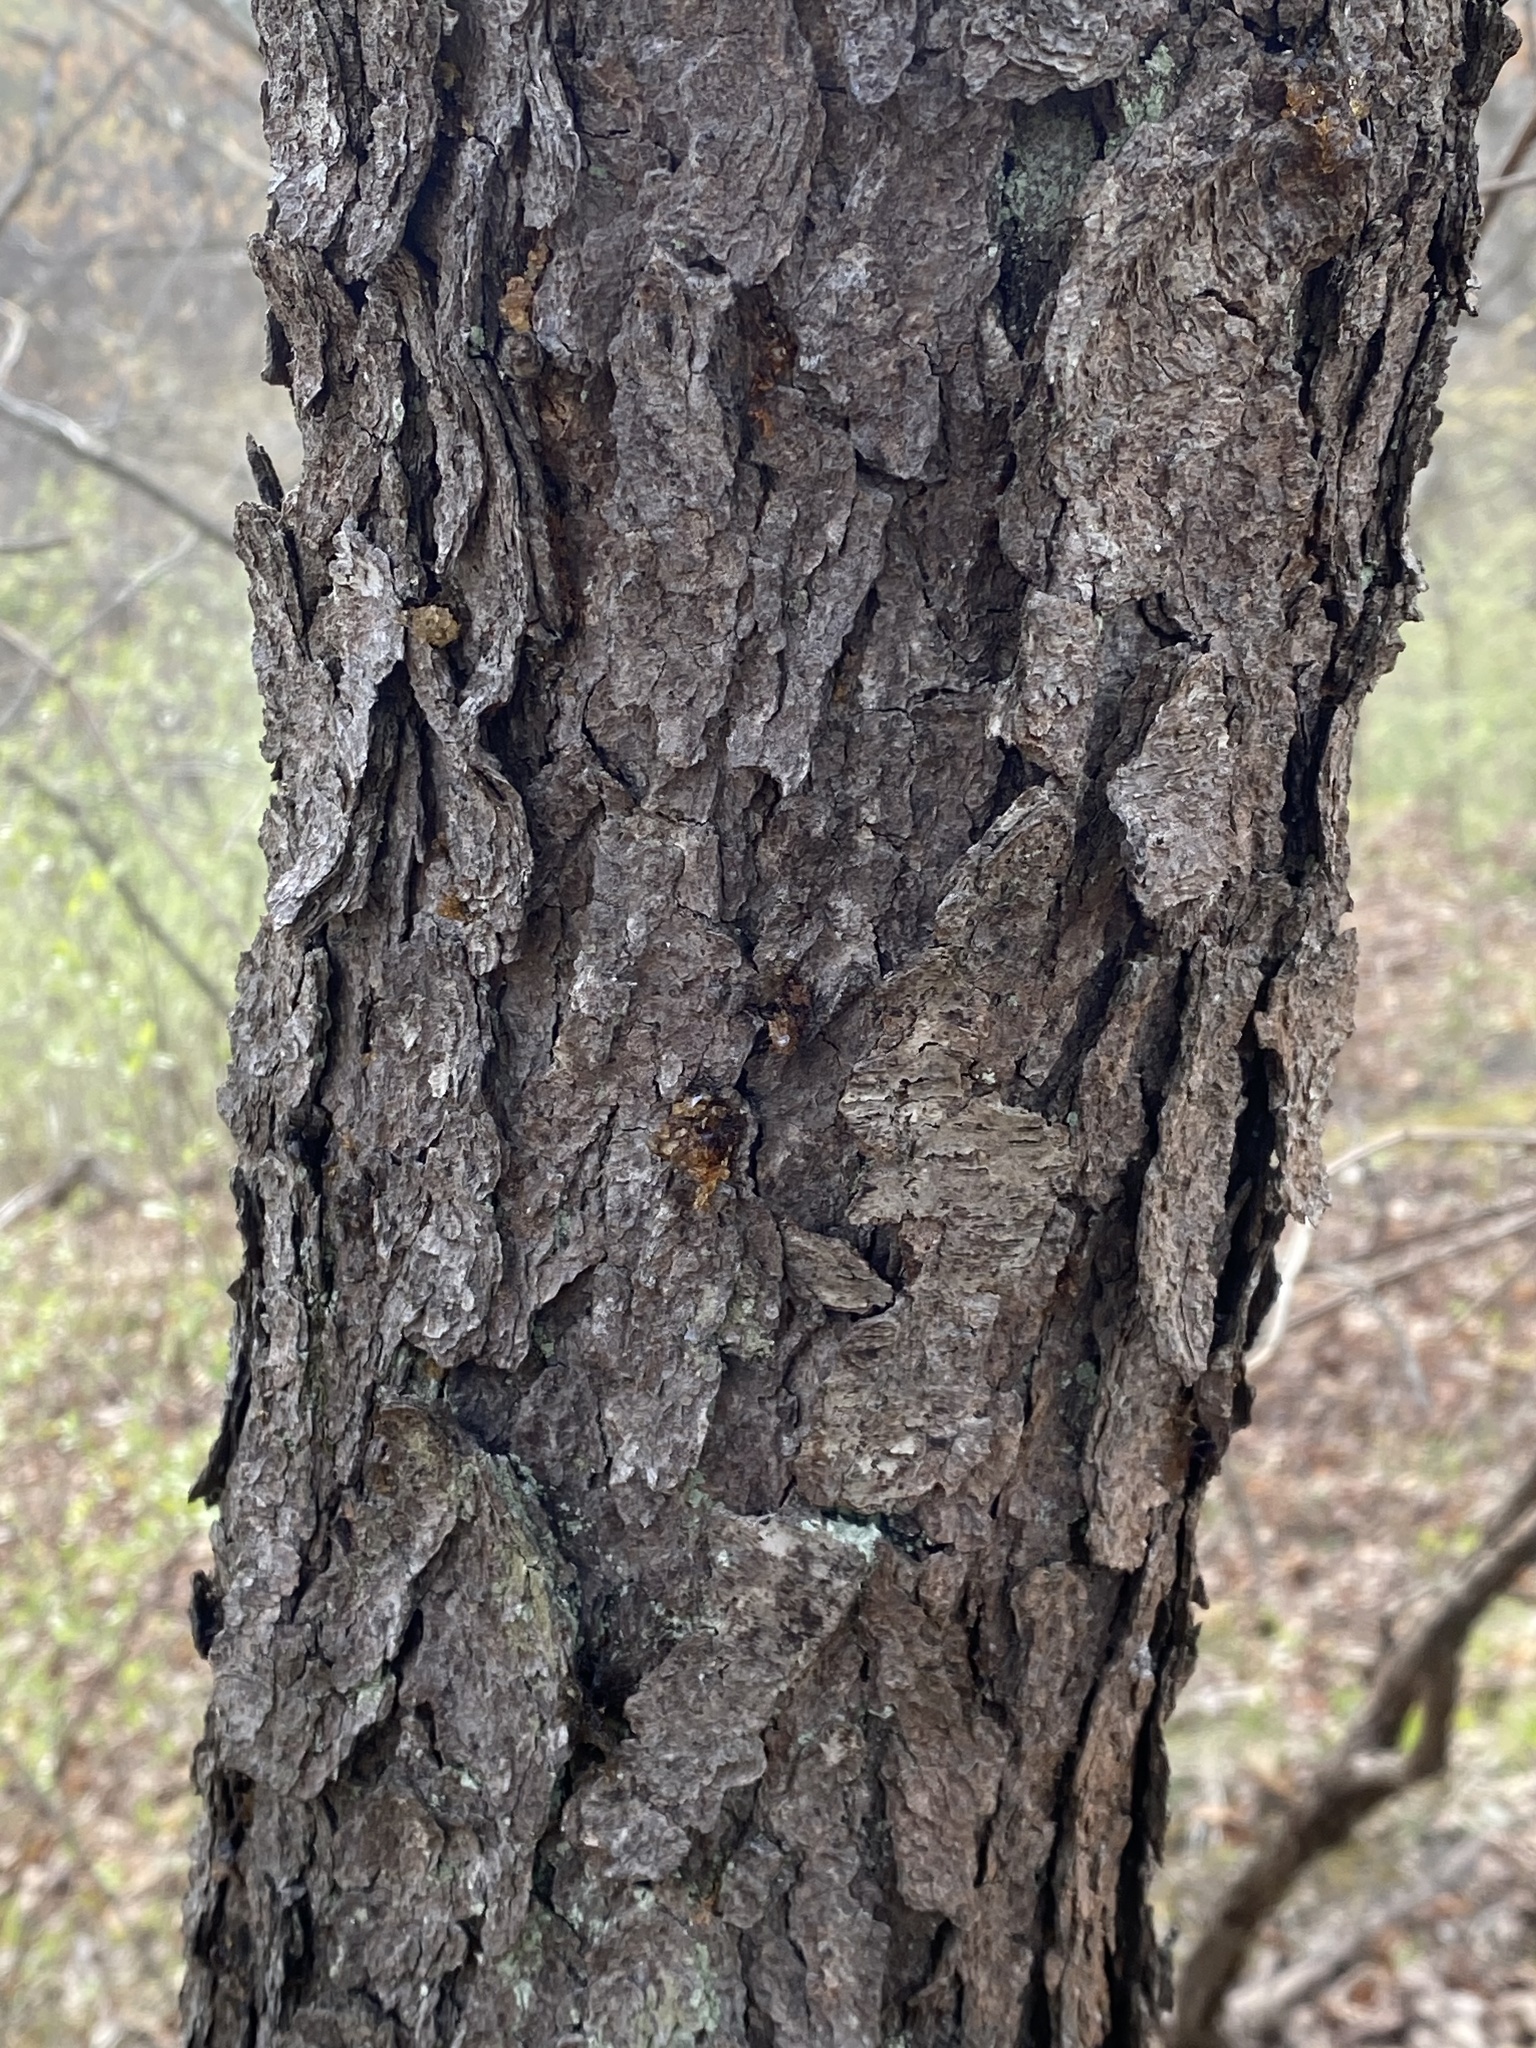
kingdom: Plantae
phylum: Tracheophyta
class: Magnoliopsida
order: Rosales
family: Rosaceae
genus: Prunus
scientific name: Prunus serotina
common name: Black cherry
